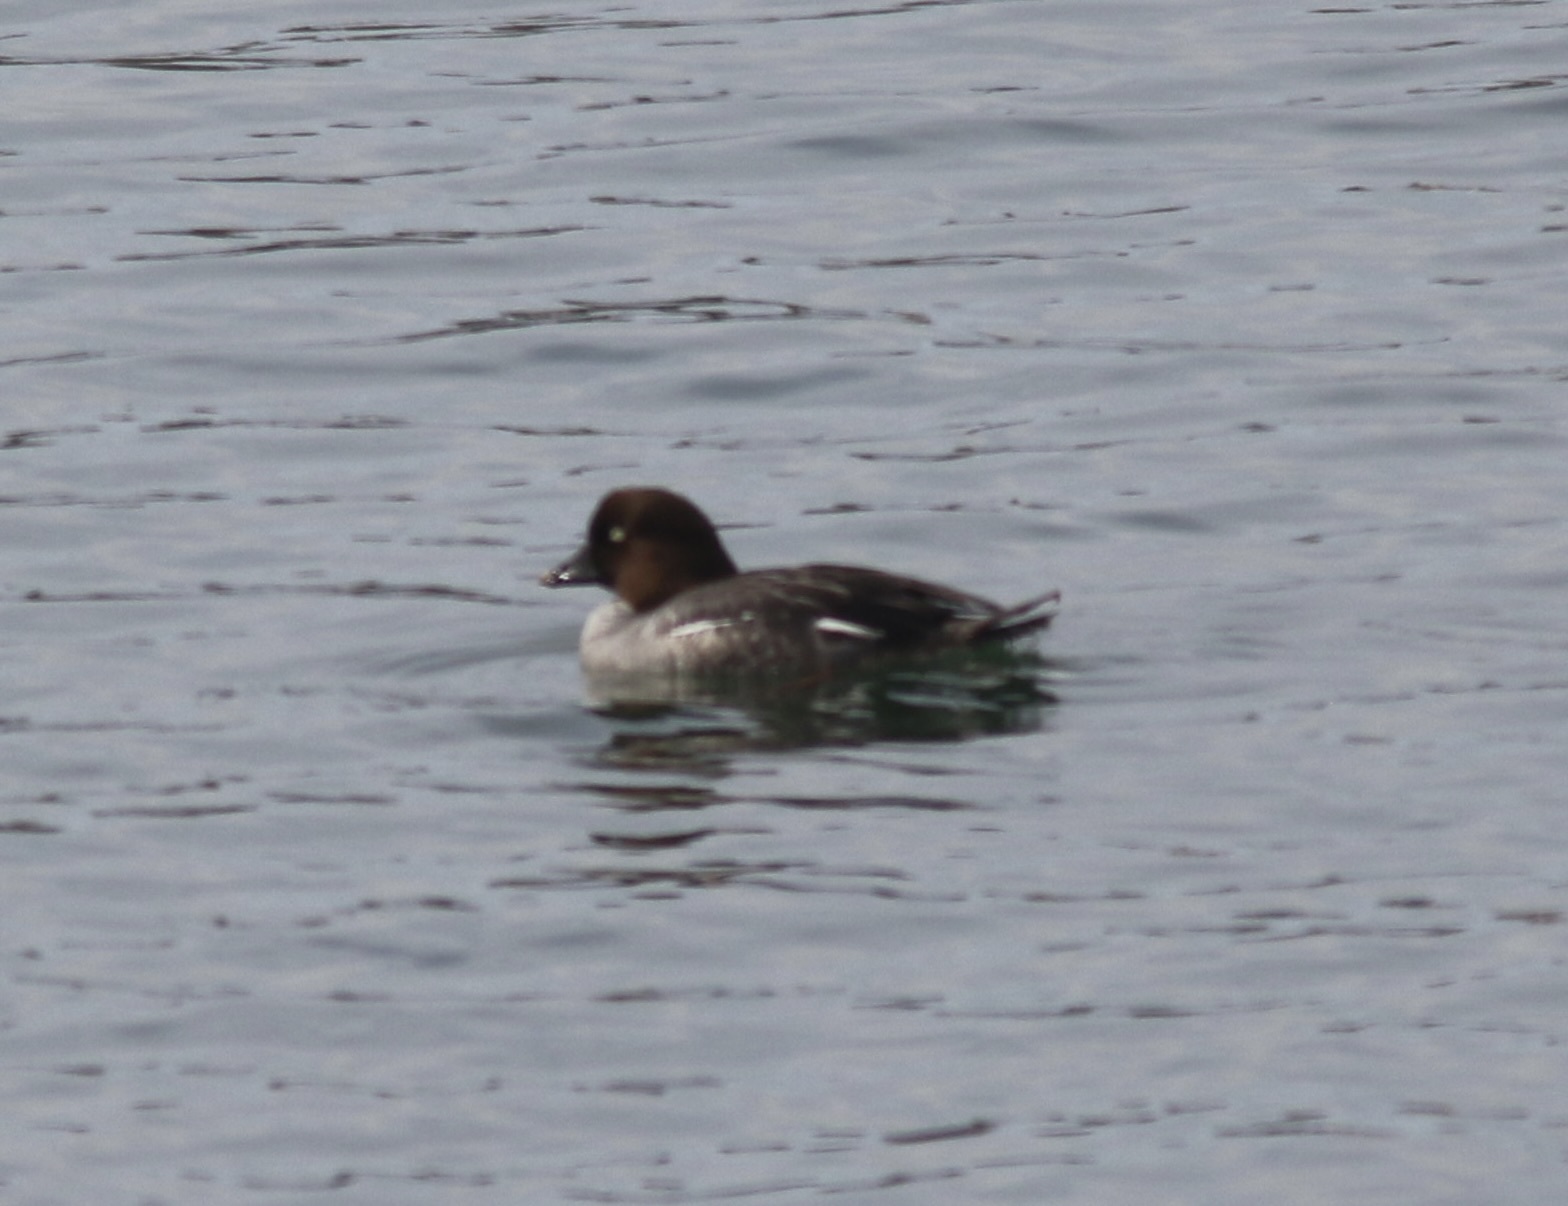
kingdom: Animalia
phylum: Chordata
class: Aves
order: Anseriformes
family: Anatidae
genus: Bucephala
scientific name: Bucephala clangula
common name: Common goldeneye
